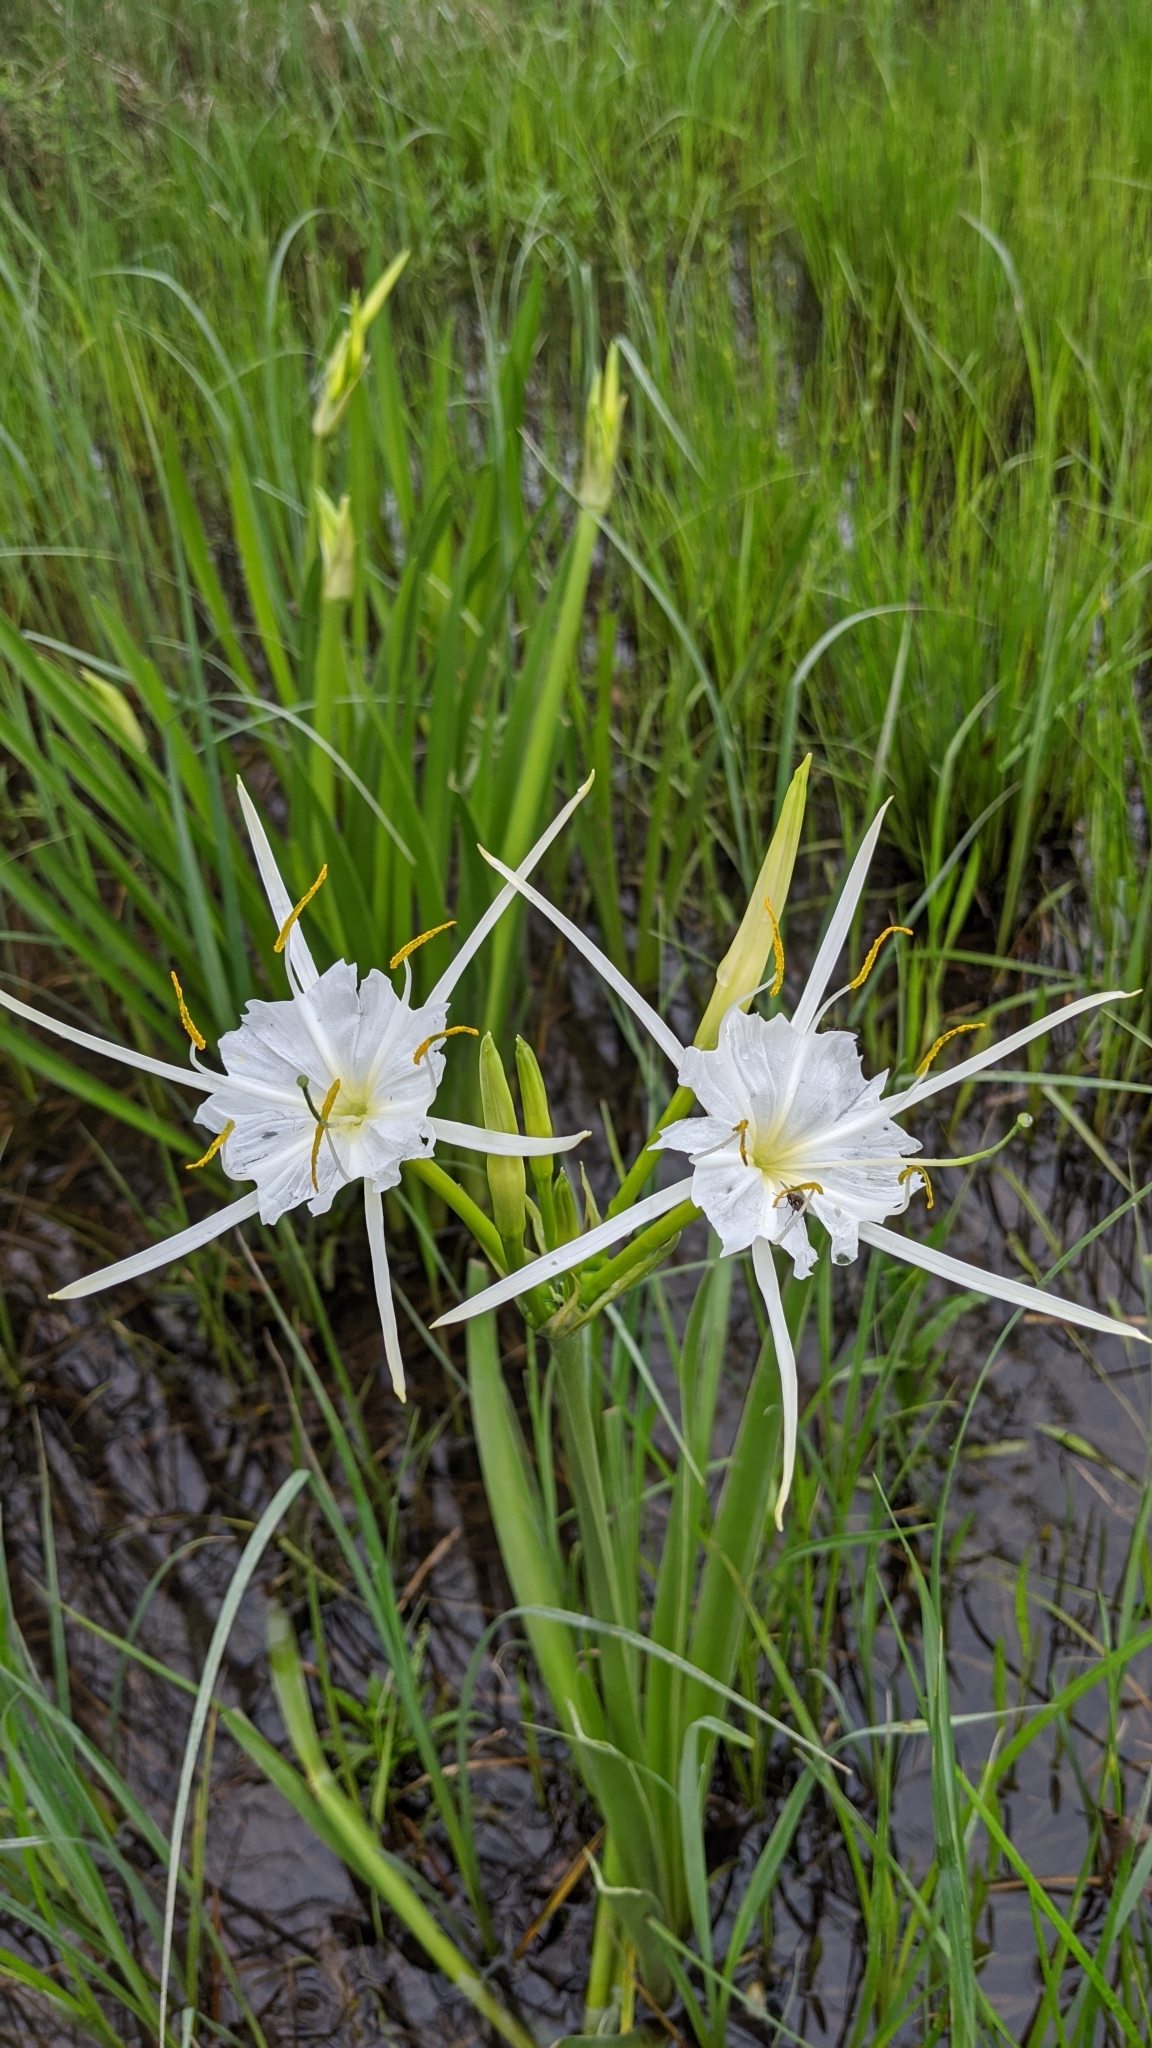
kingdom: Plantae
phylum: Tracheophyta
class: Liliopsida
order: Asparagales
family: Amaryllidaceae
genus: Hymenocallis
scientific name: Hymenocallis liriosme
